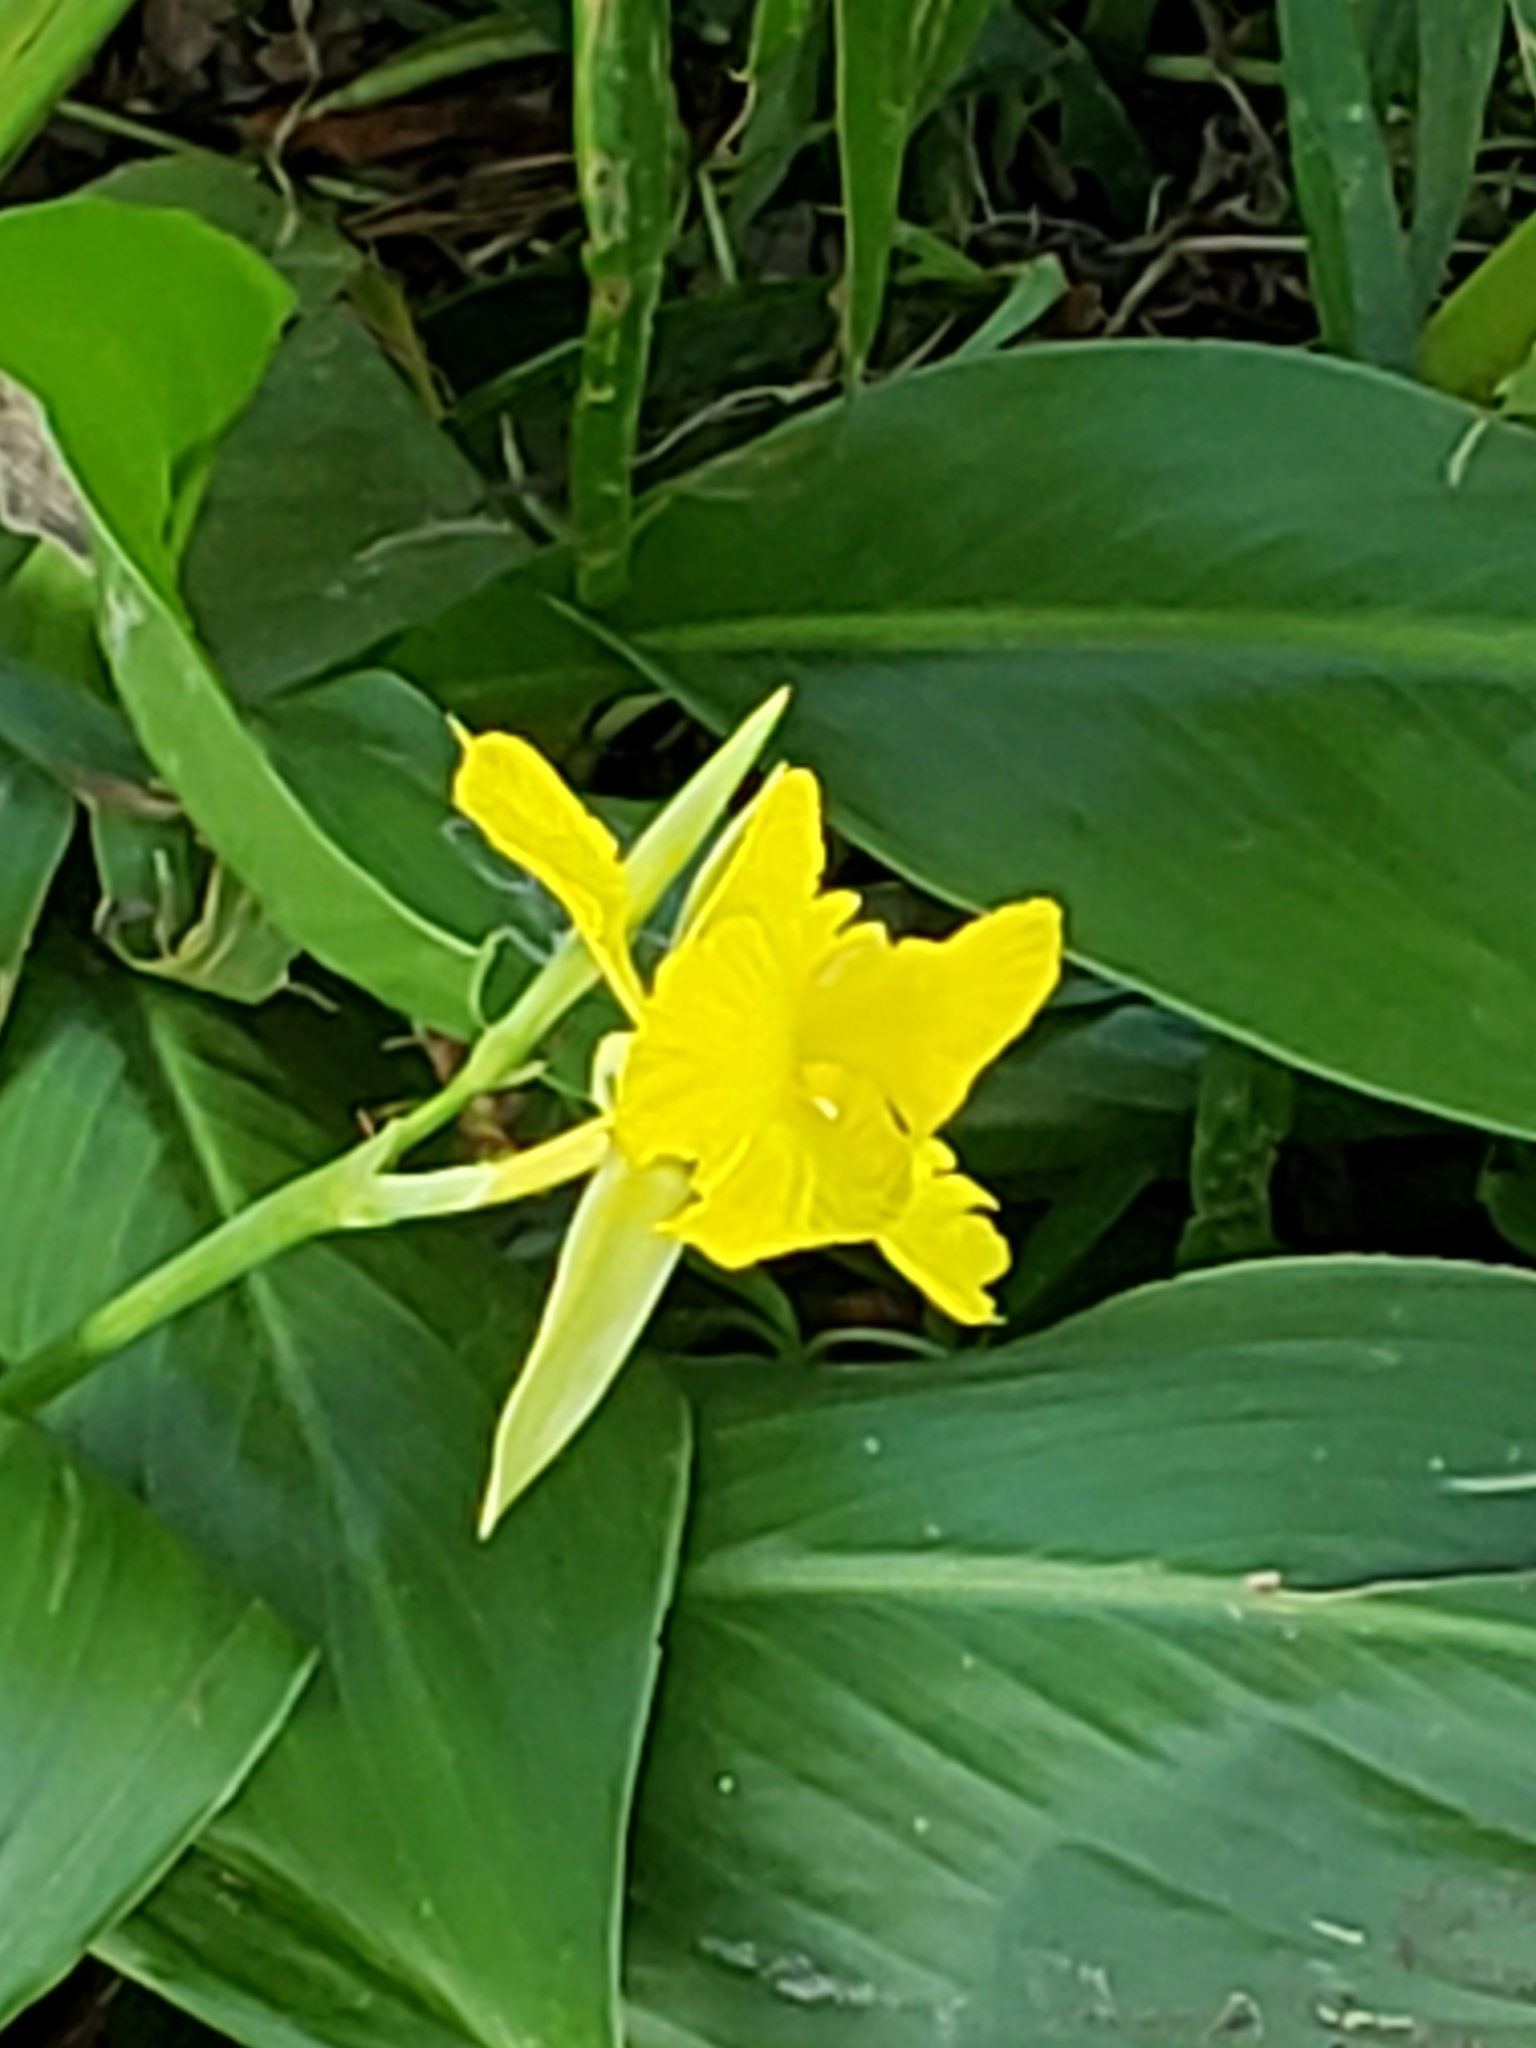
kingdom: Plantae
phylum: Tracheophyta
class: Liliopsida
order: Zingiberales
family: Cannaceae
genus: Canna
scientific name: Canna flaccida
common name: Bandana-of-the-everglades
